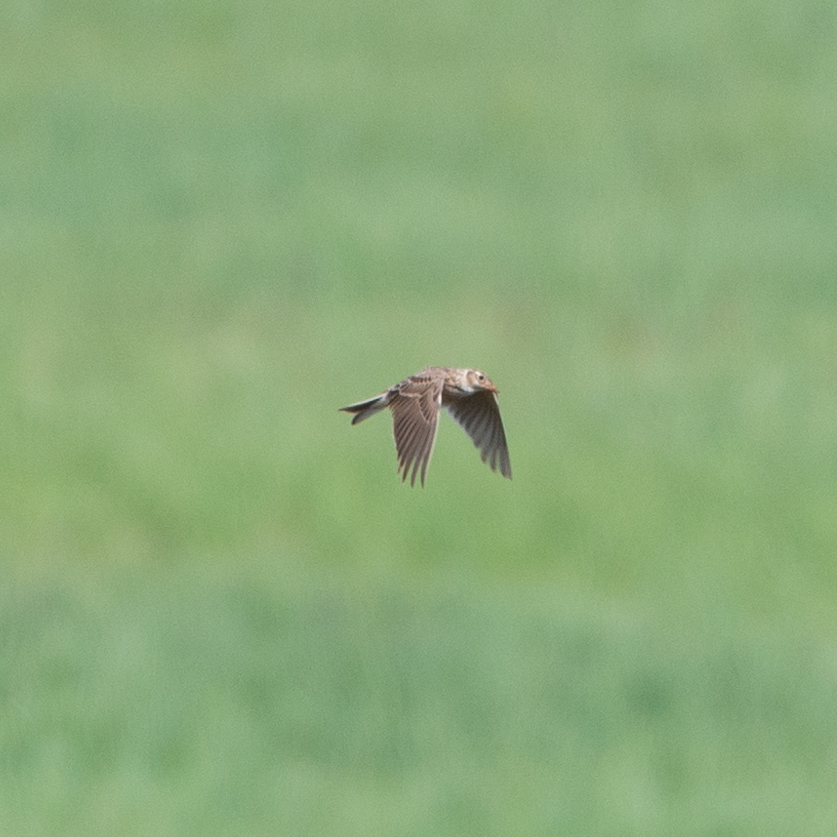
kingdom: Animalia
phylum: Chordata
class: Aves
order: Passeriformes
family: Alaudidae
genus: Alauda
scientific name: Alauda arvensis
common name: Eurasian skylark
